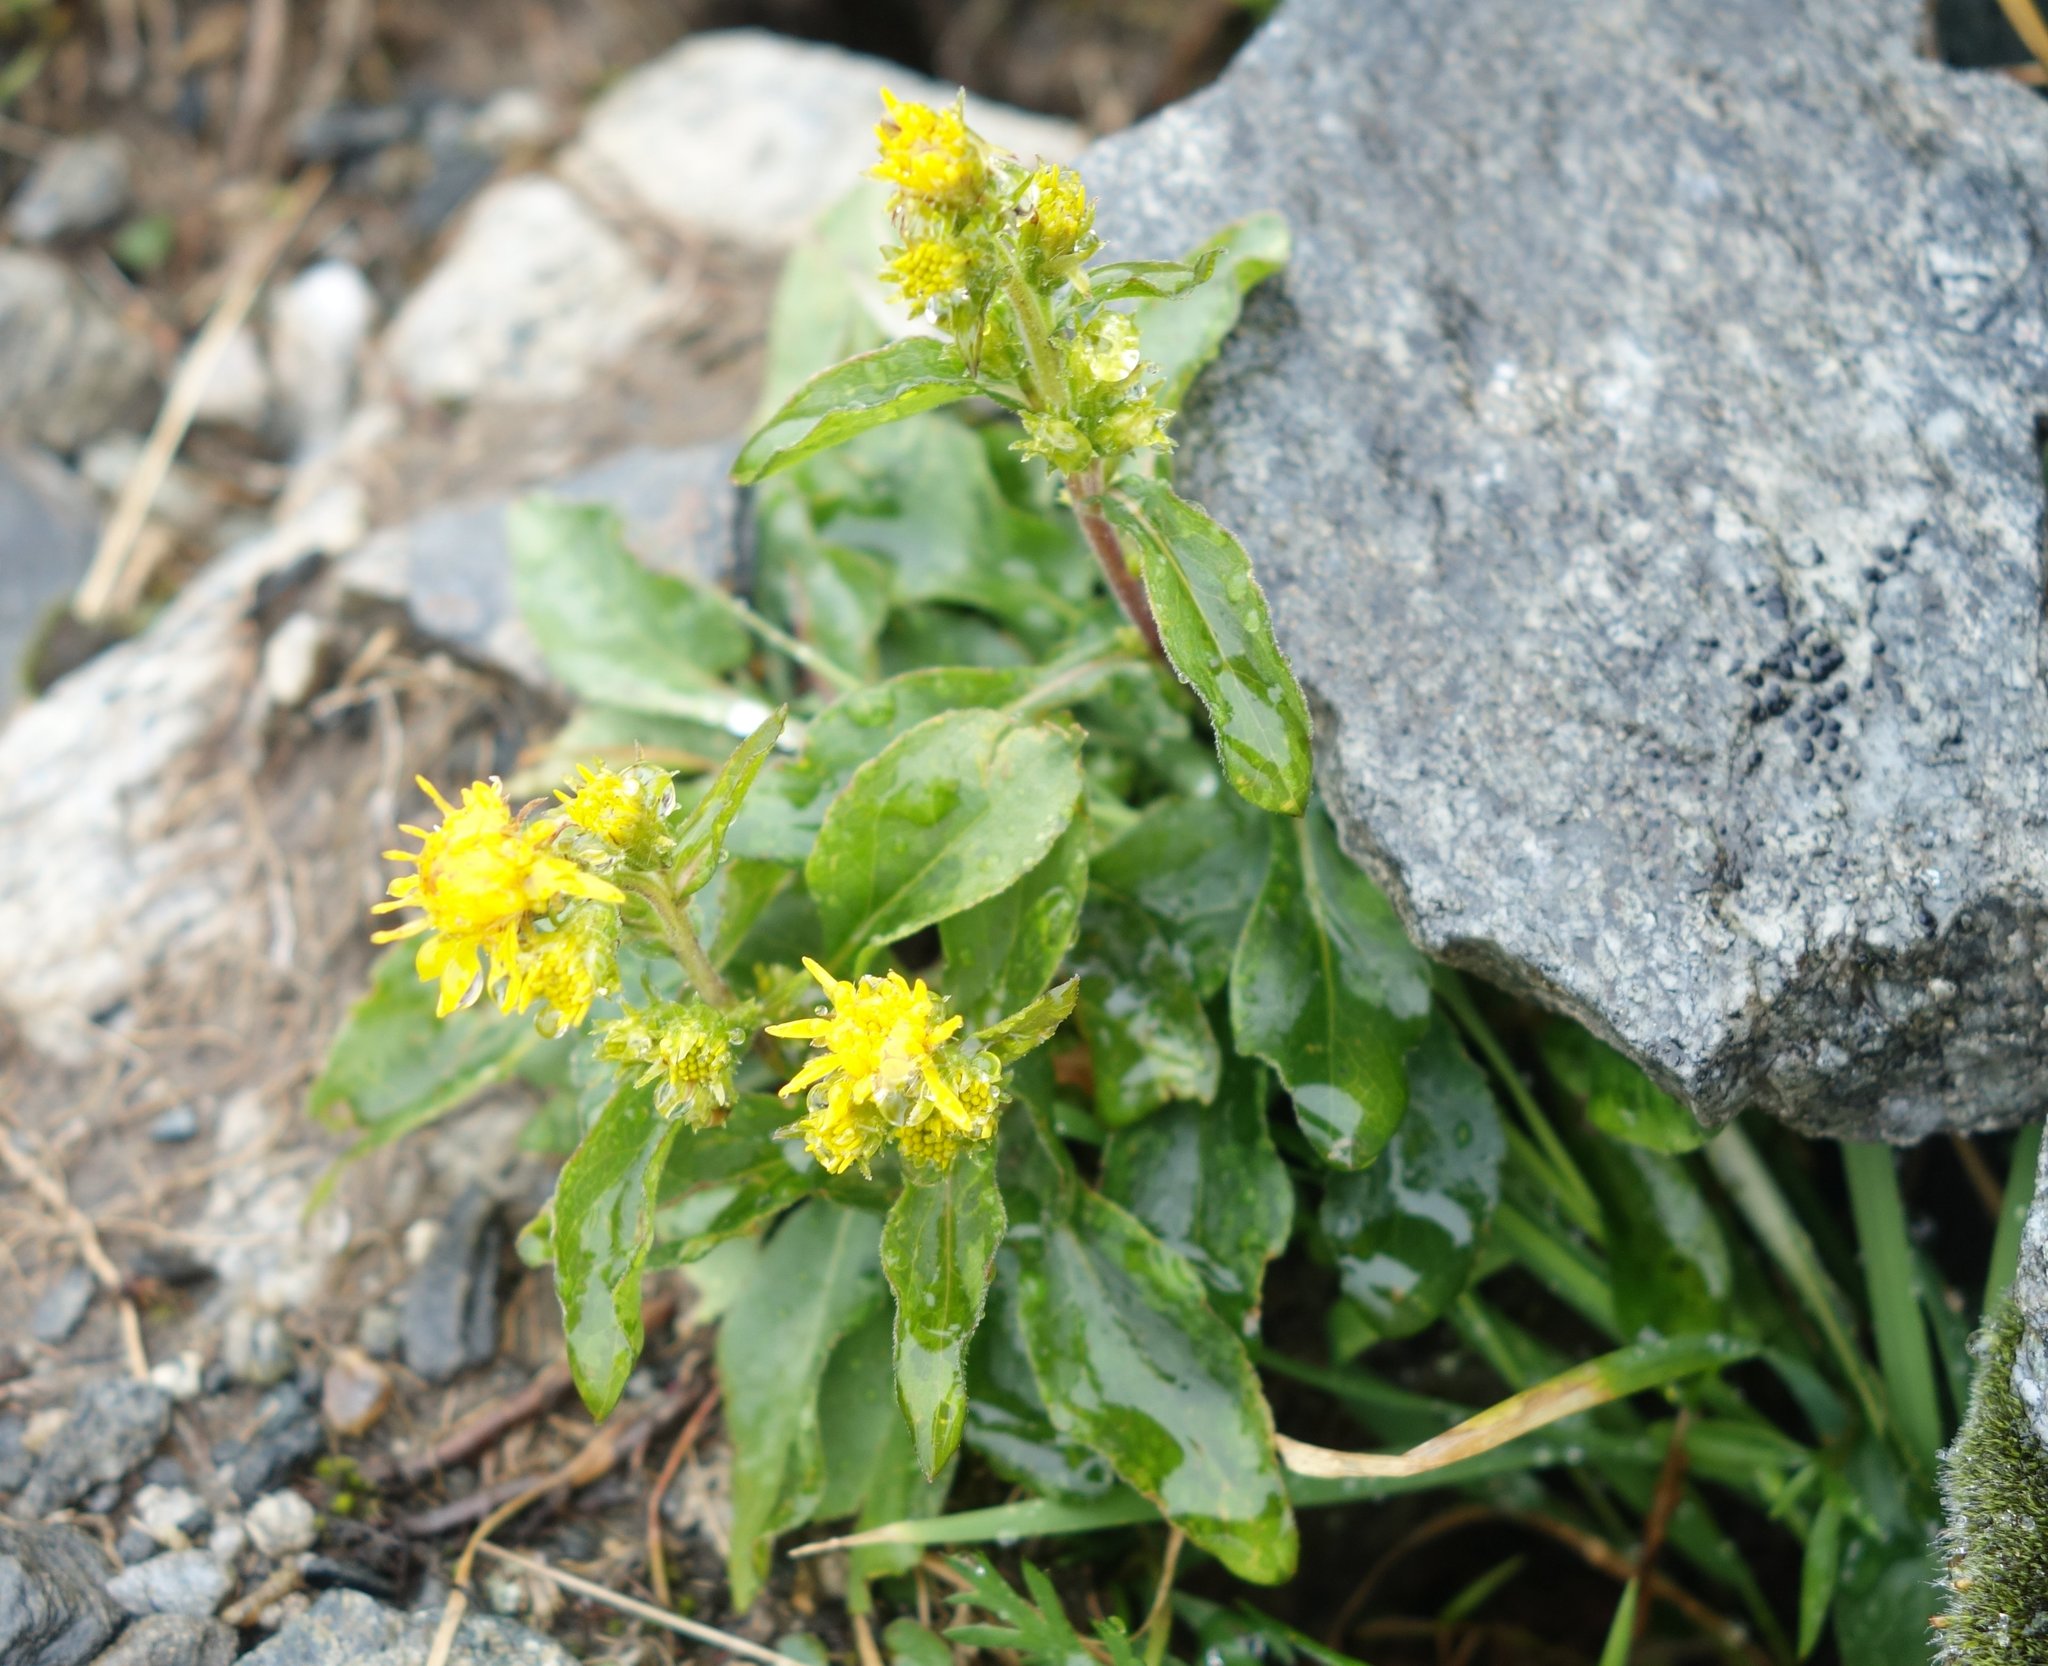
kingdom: Plantae
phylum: Tracheophyta
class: Magnoliopsida
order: Asterales
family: Asteraceae
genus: Solidago
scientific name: Solidago virgaurea
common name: Goldenrod
